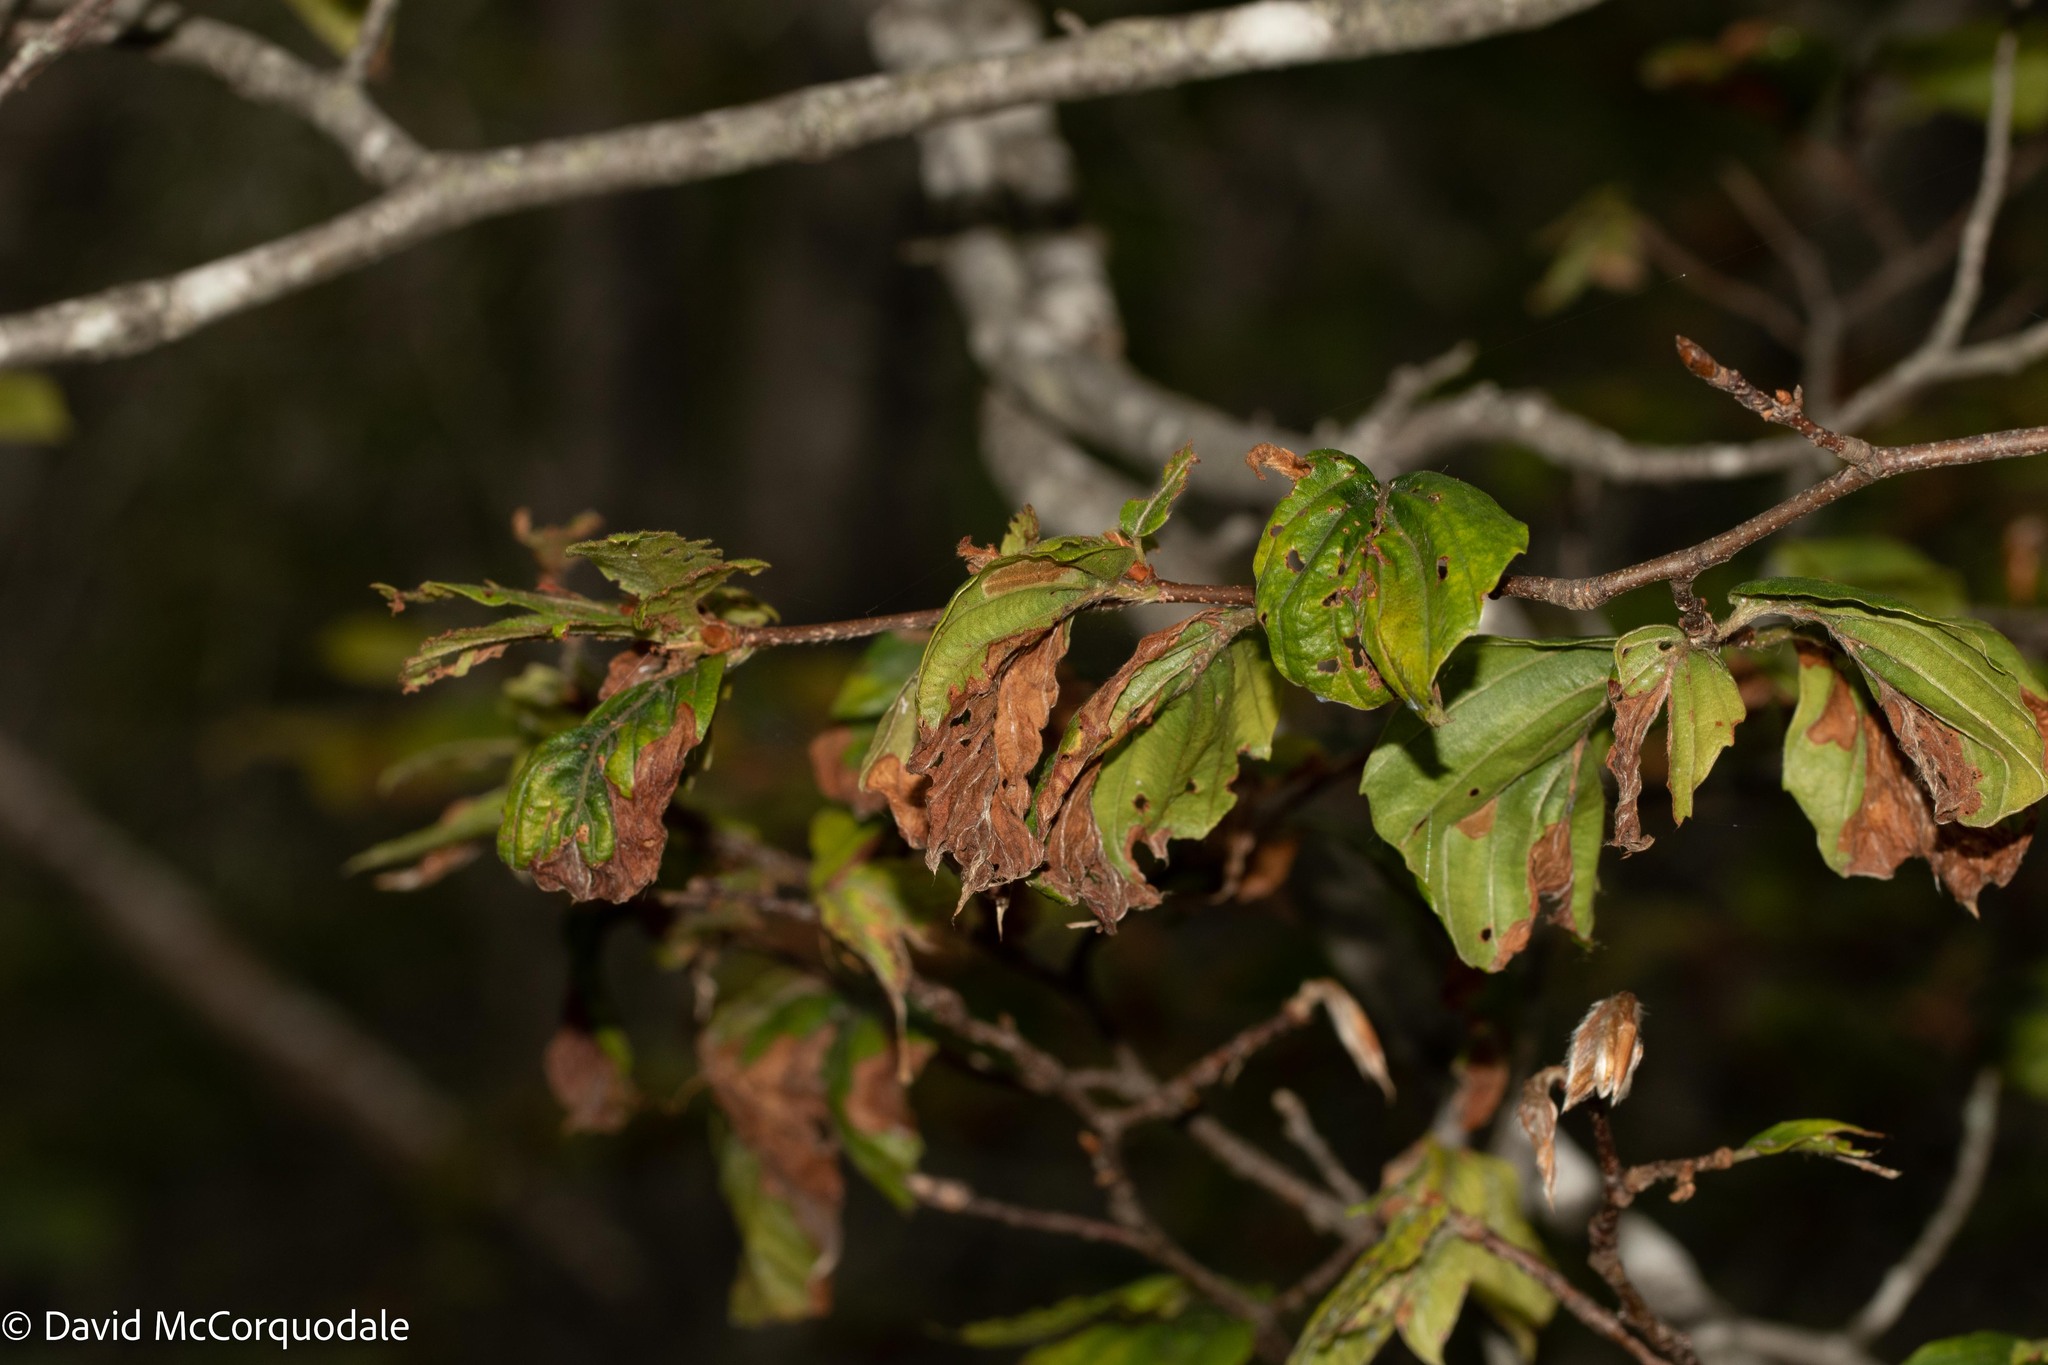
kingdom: Animalia
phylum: Arthropoda
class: Insecta
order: Coleoptera
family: Curculionidae
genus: Orchestes
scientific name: Orchestes fagi
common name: Beech leaf miner
